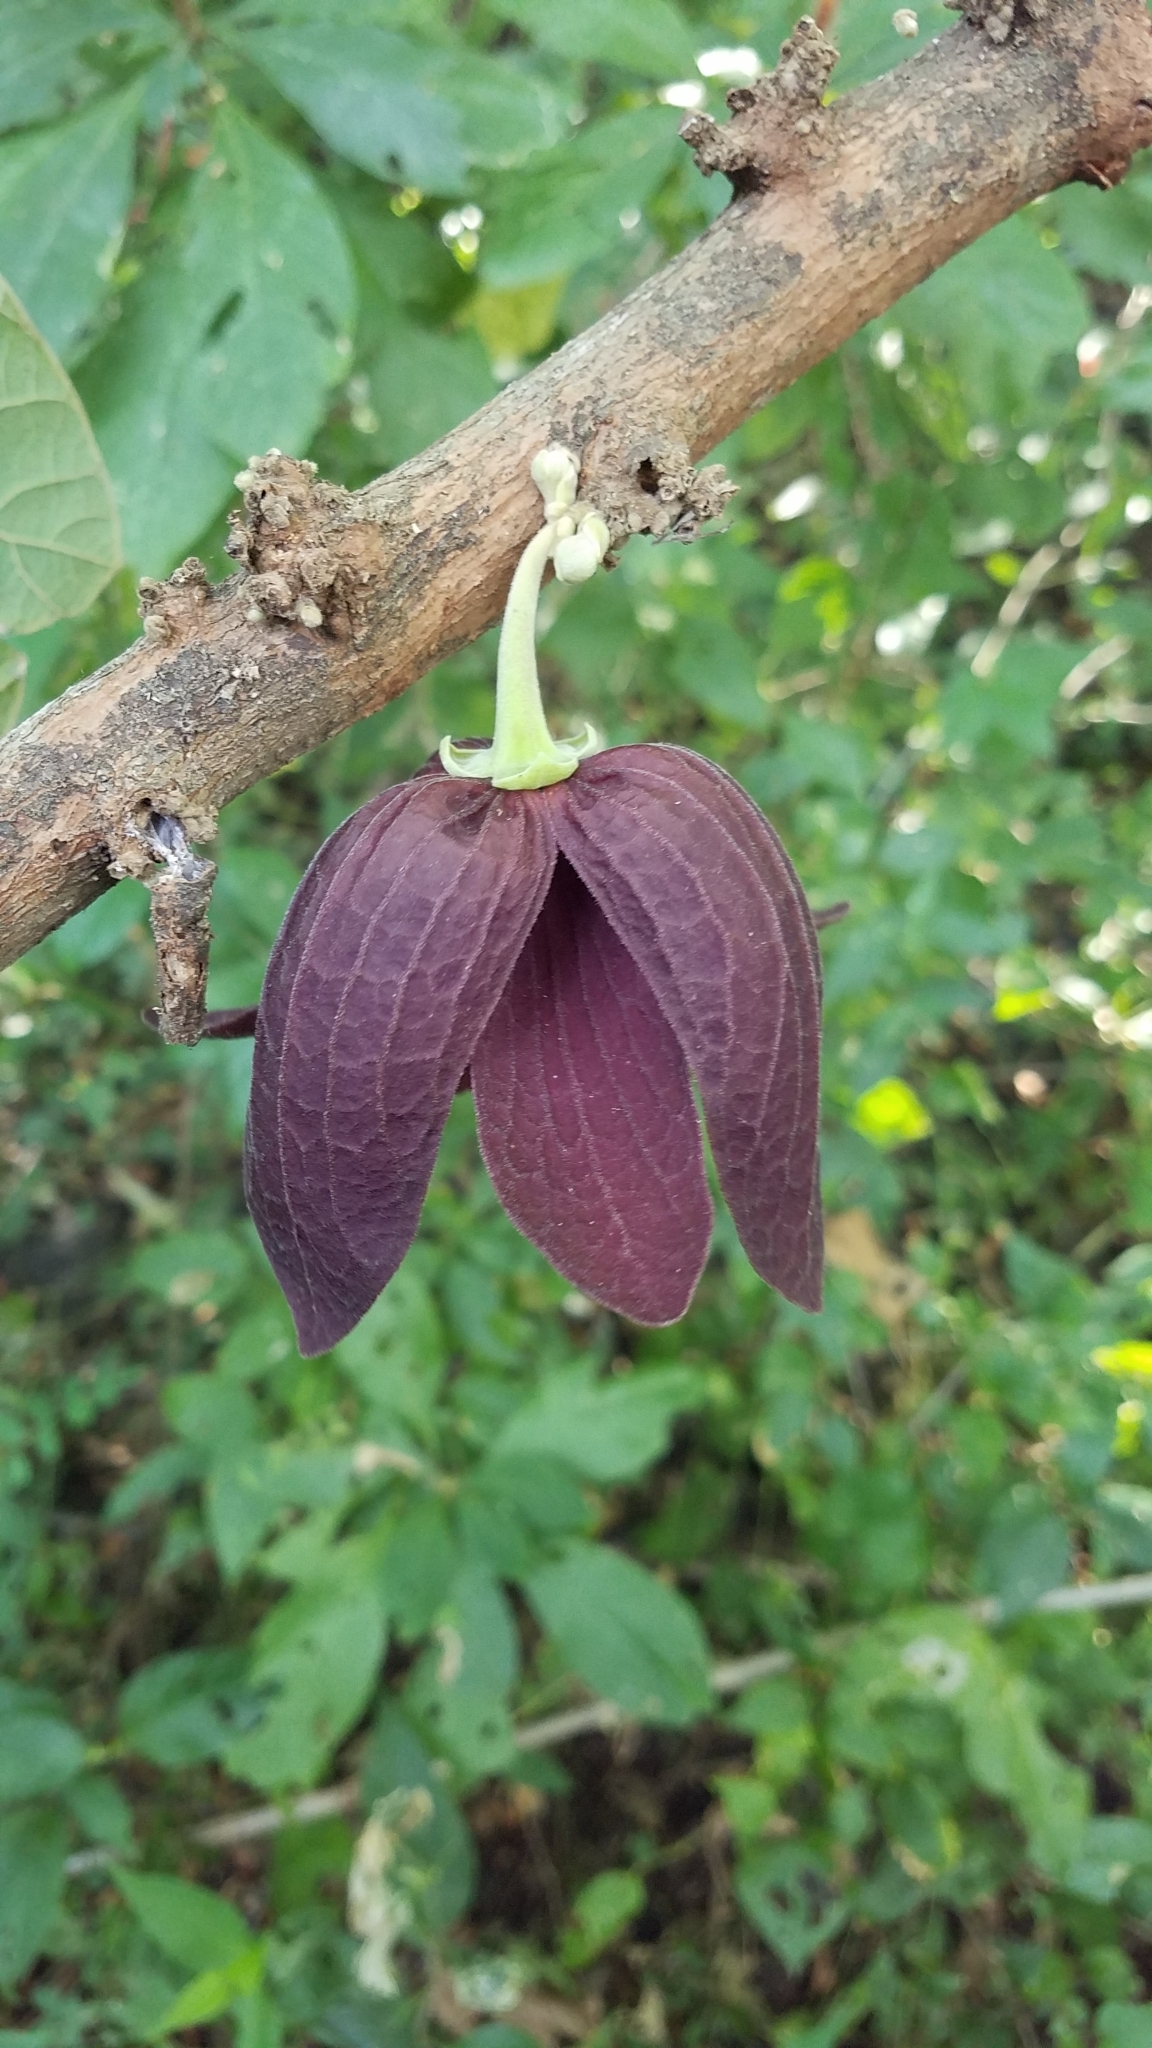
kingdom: Plantae
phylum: Tracheophyta
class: Magnoliopsida
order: Magnoliales
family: Annonaceae
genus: Sapranthus
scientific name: Sapranthus violaceus
